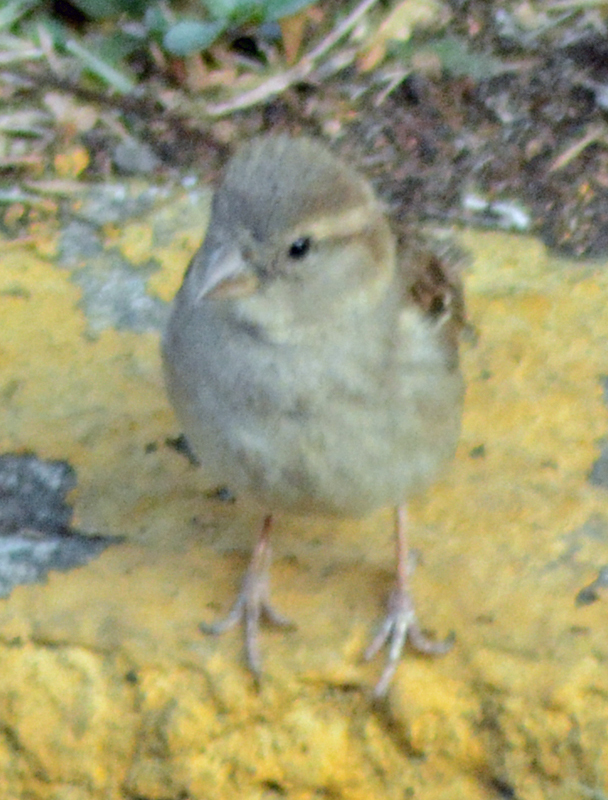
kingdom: Animalia
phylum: Chordata
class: Aves
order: Passeriformes
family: Passeridae
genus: Passer
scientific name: Passer domesticus
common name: House sparrow
